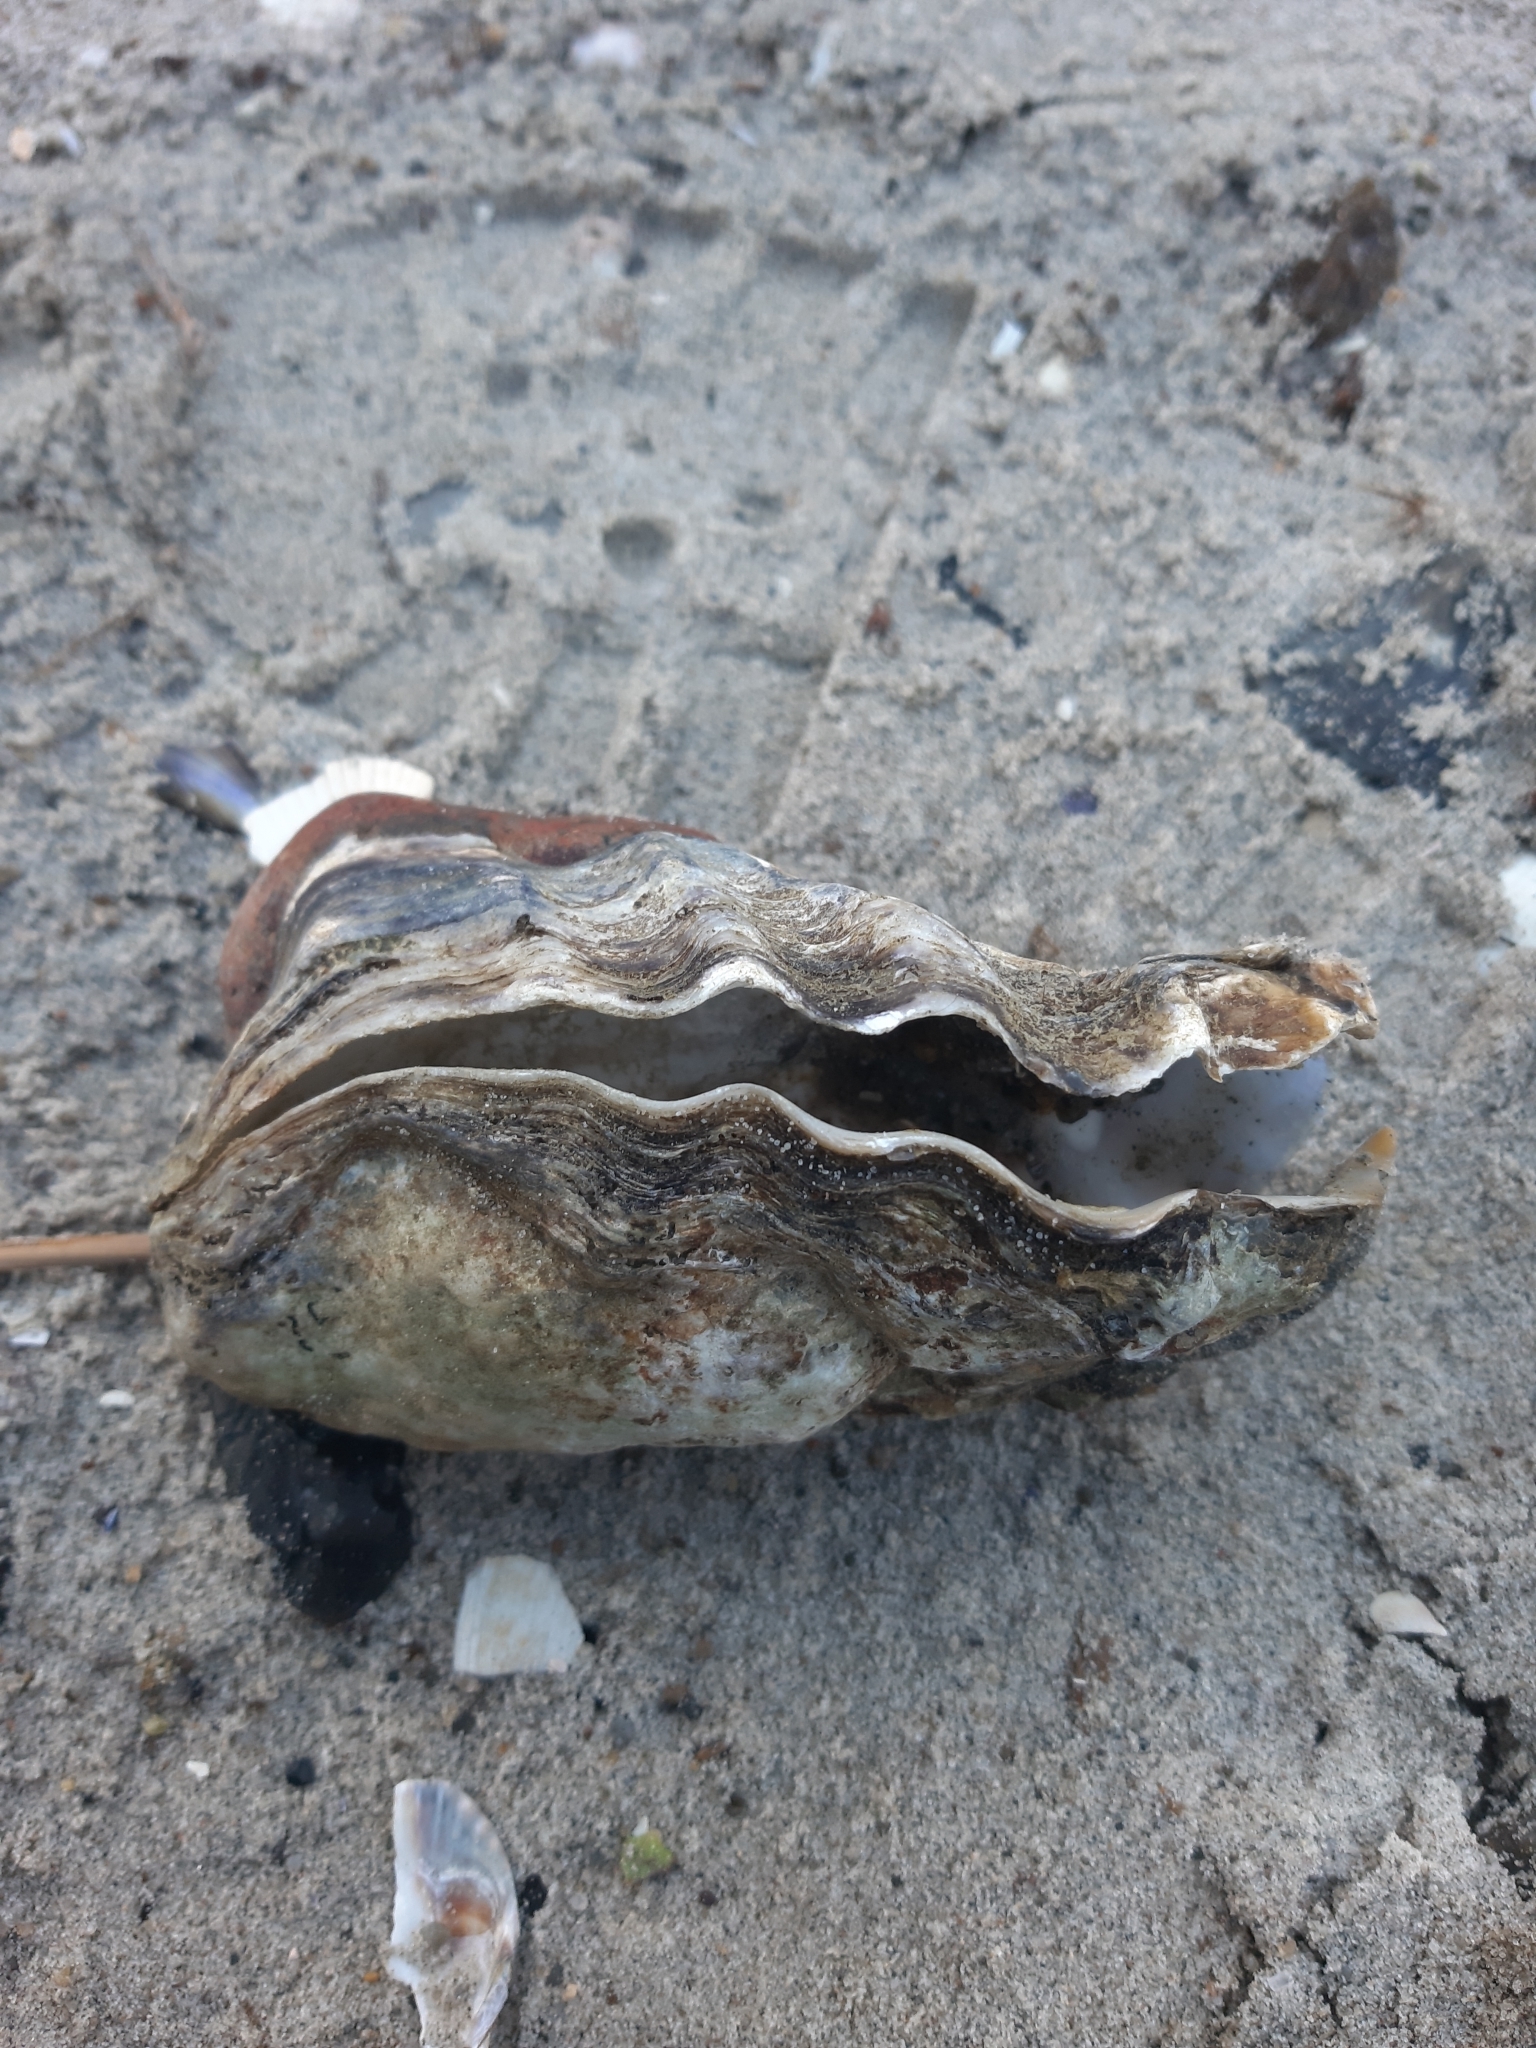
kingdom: Animalia
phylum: Mollusca
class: Bivalvia
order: Ostreida
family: Ostreidae
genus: Magallana
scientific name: Magallana gigas
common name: Pacific oyster
